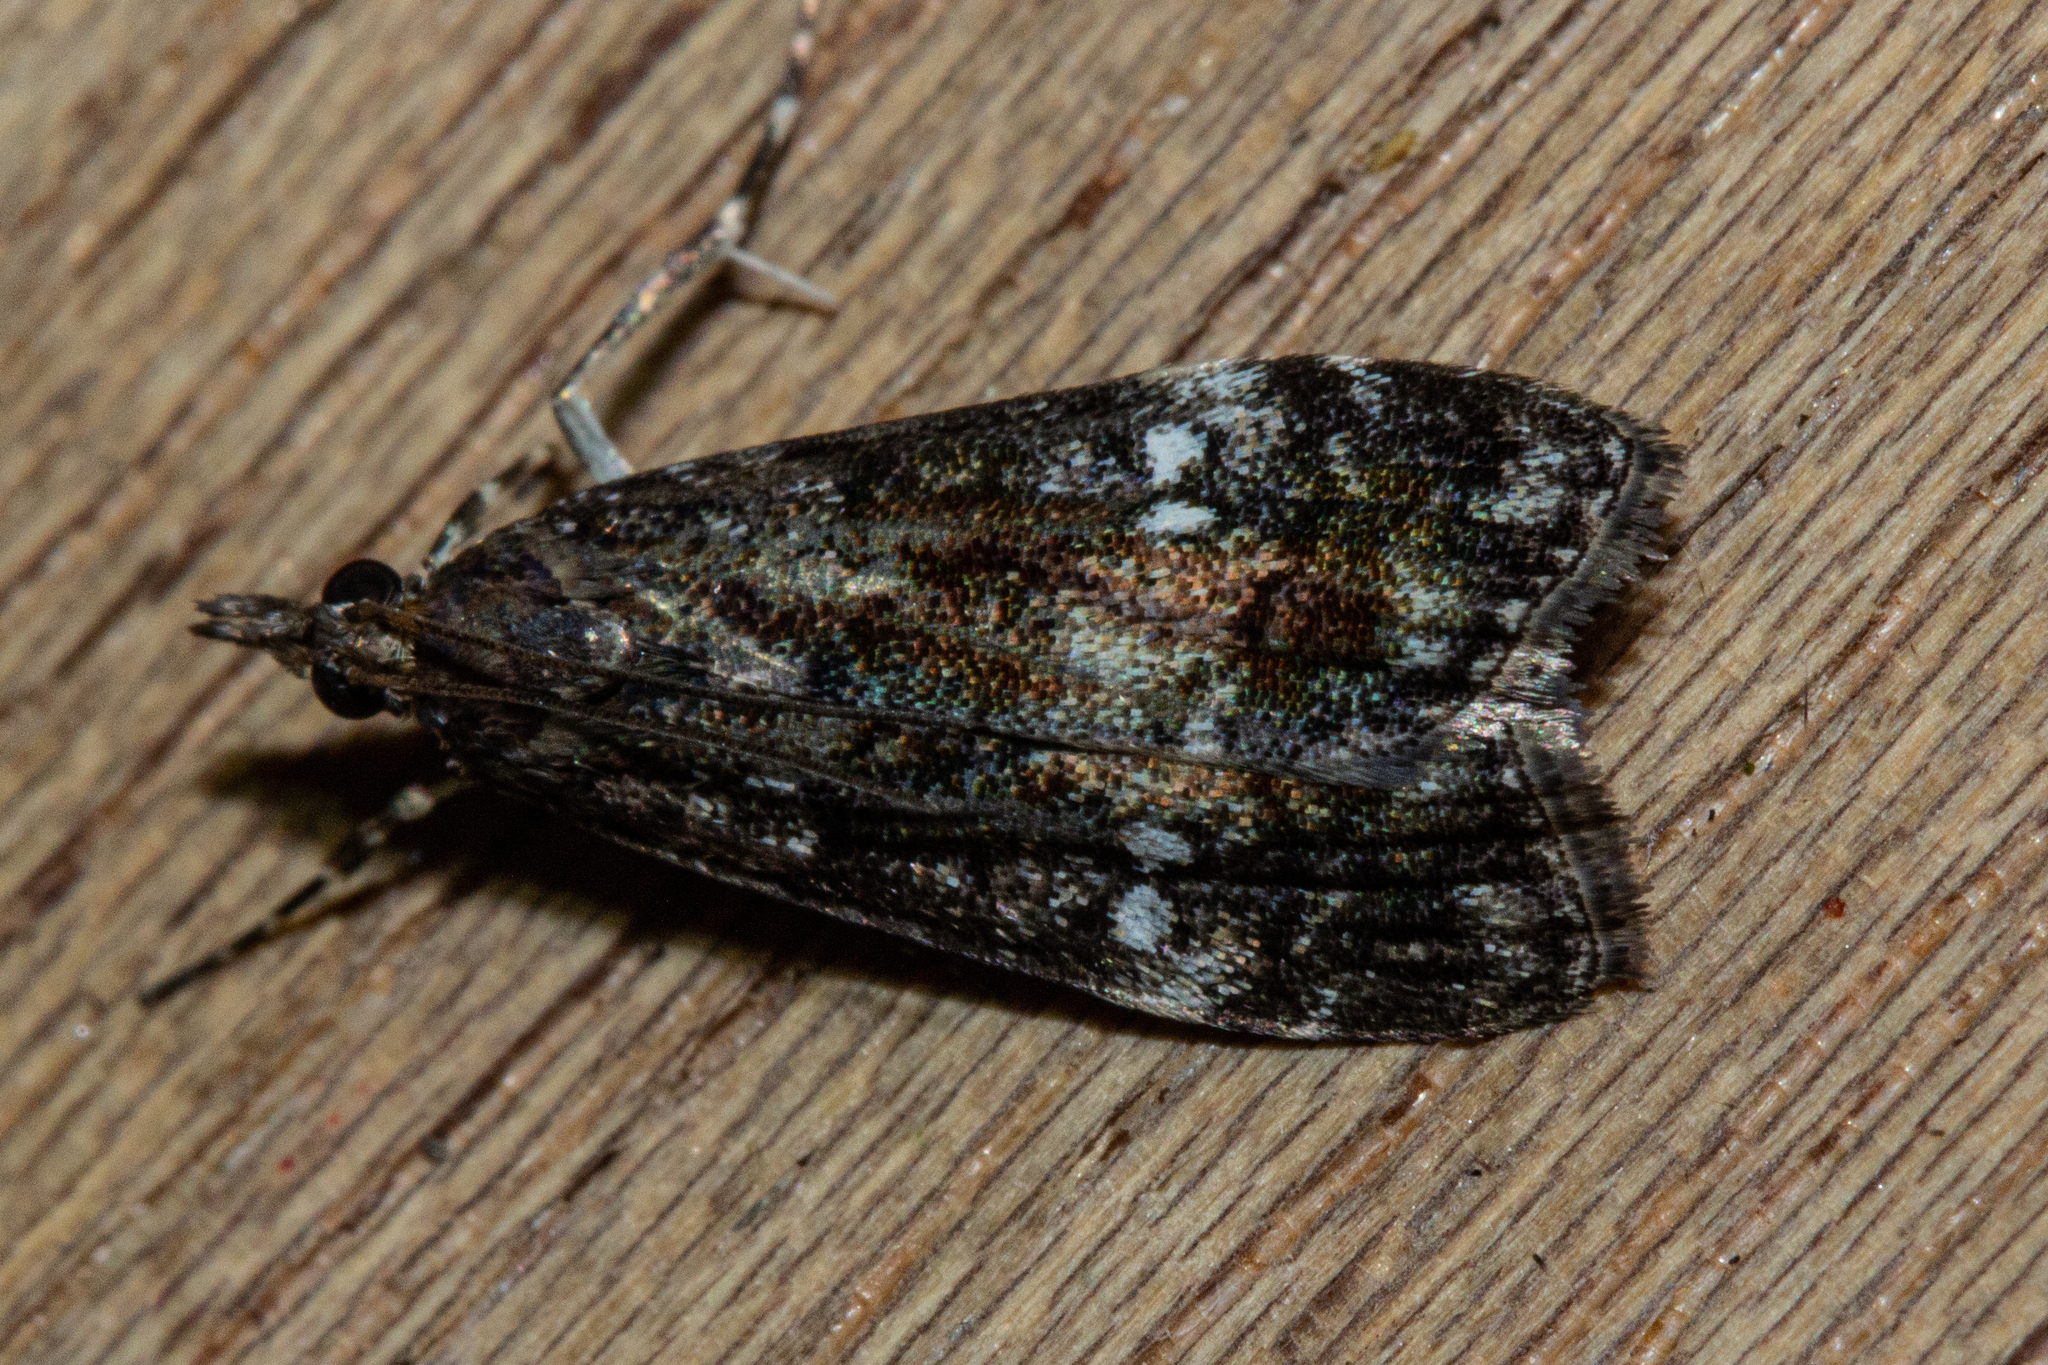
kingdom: Animalia
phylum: Arthropoda
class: Insecta
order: Lepidoptera
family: Crambidae
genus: Eudonia
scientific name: Eudonia dinodes
